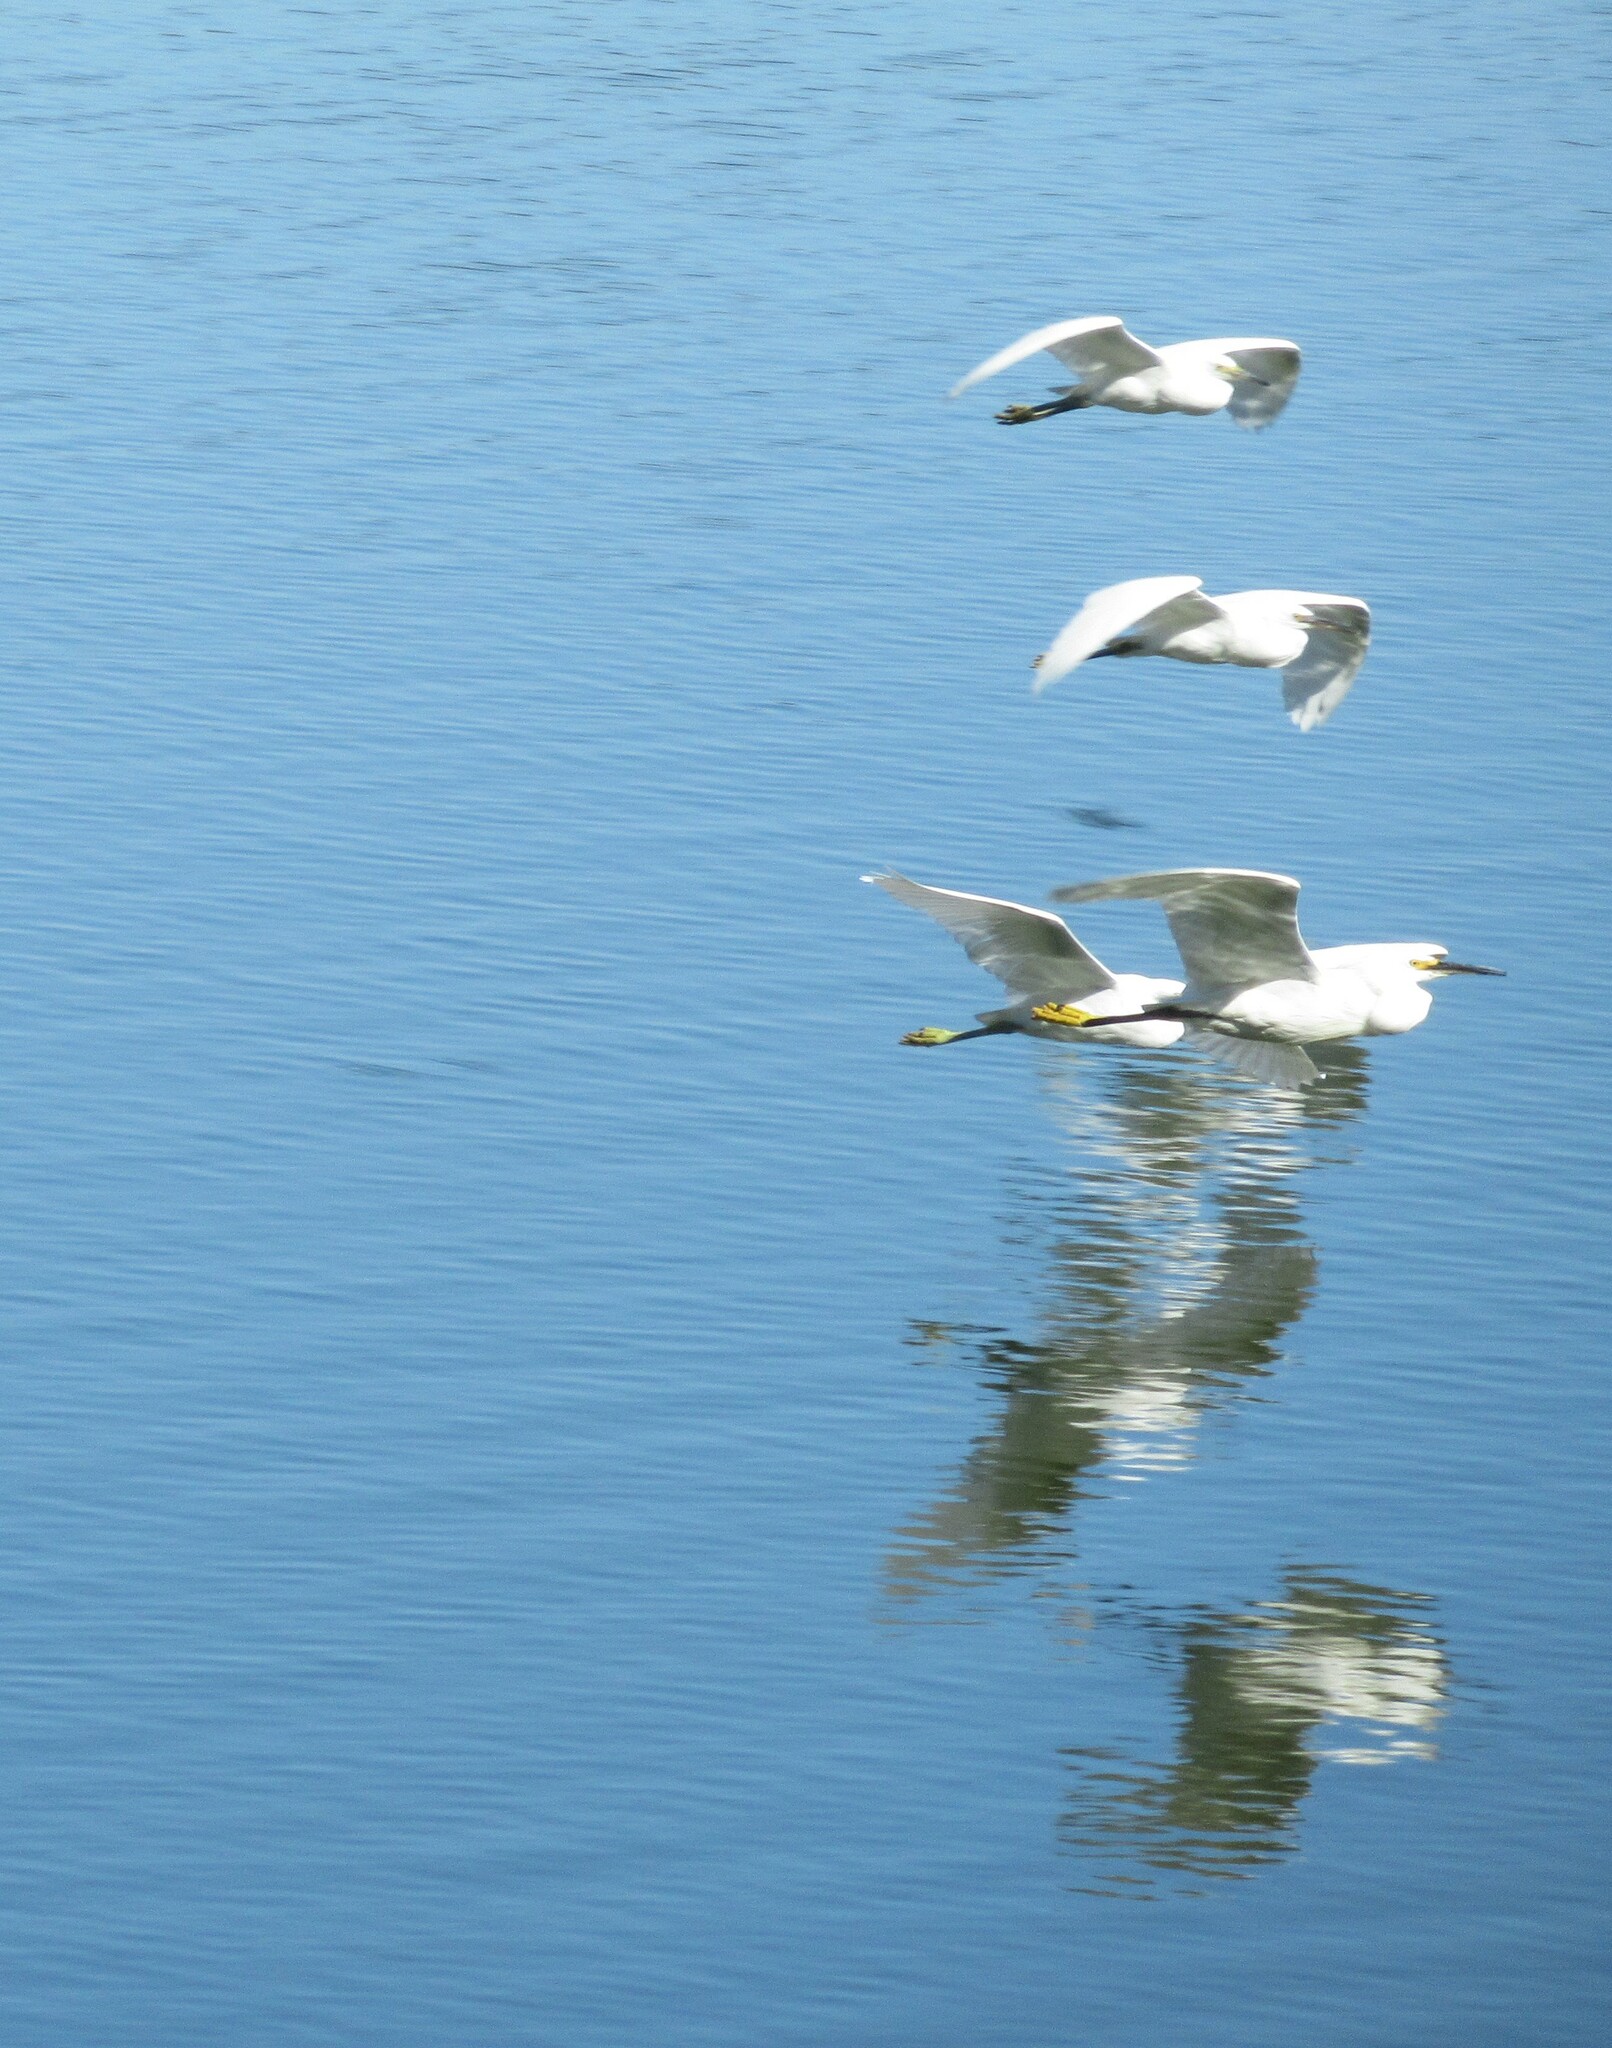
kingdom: Animalia
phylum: Chordata
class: Aves
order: Pelecaniformes
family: Ardeidae
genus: Egretta
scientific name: Egretta thula
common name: Snowy egret
